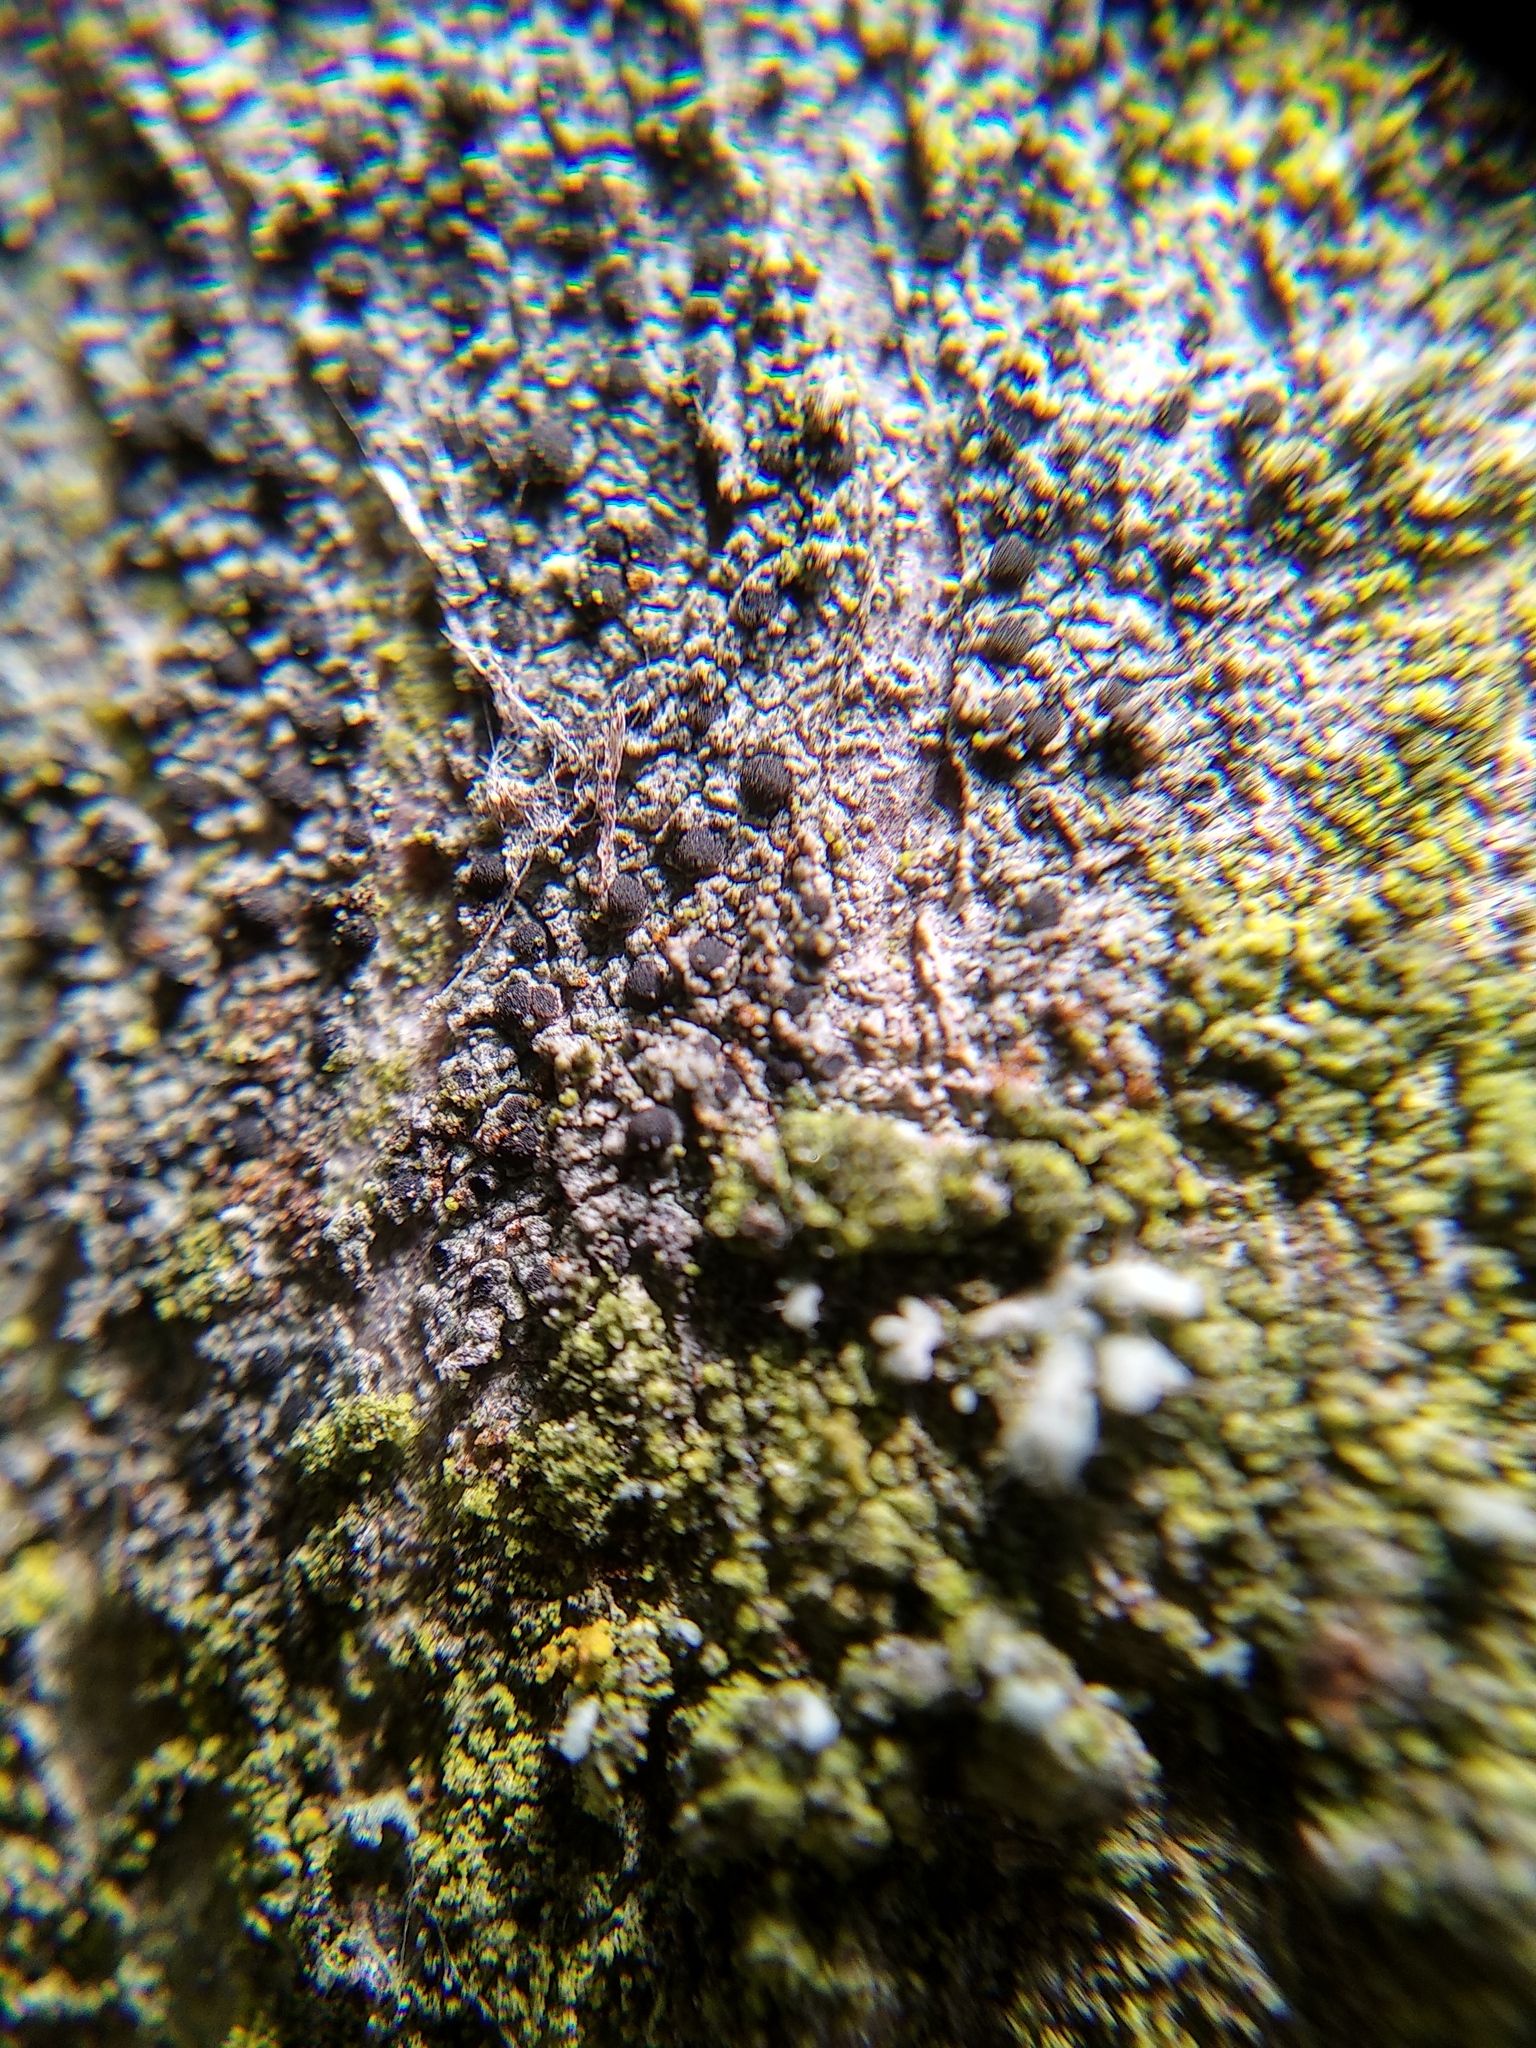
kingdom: Fungi
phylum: Ascomycota
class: Lecanoromycetes
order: Caliciales
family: Caliciaceae
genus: Amandinea
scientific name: Amandinea punctata
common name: Tiny button lichen
